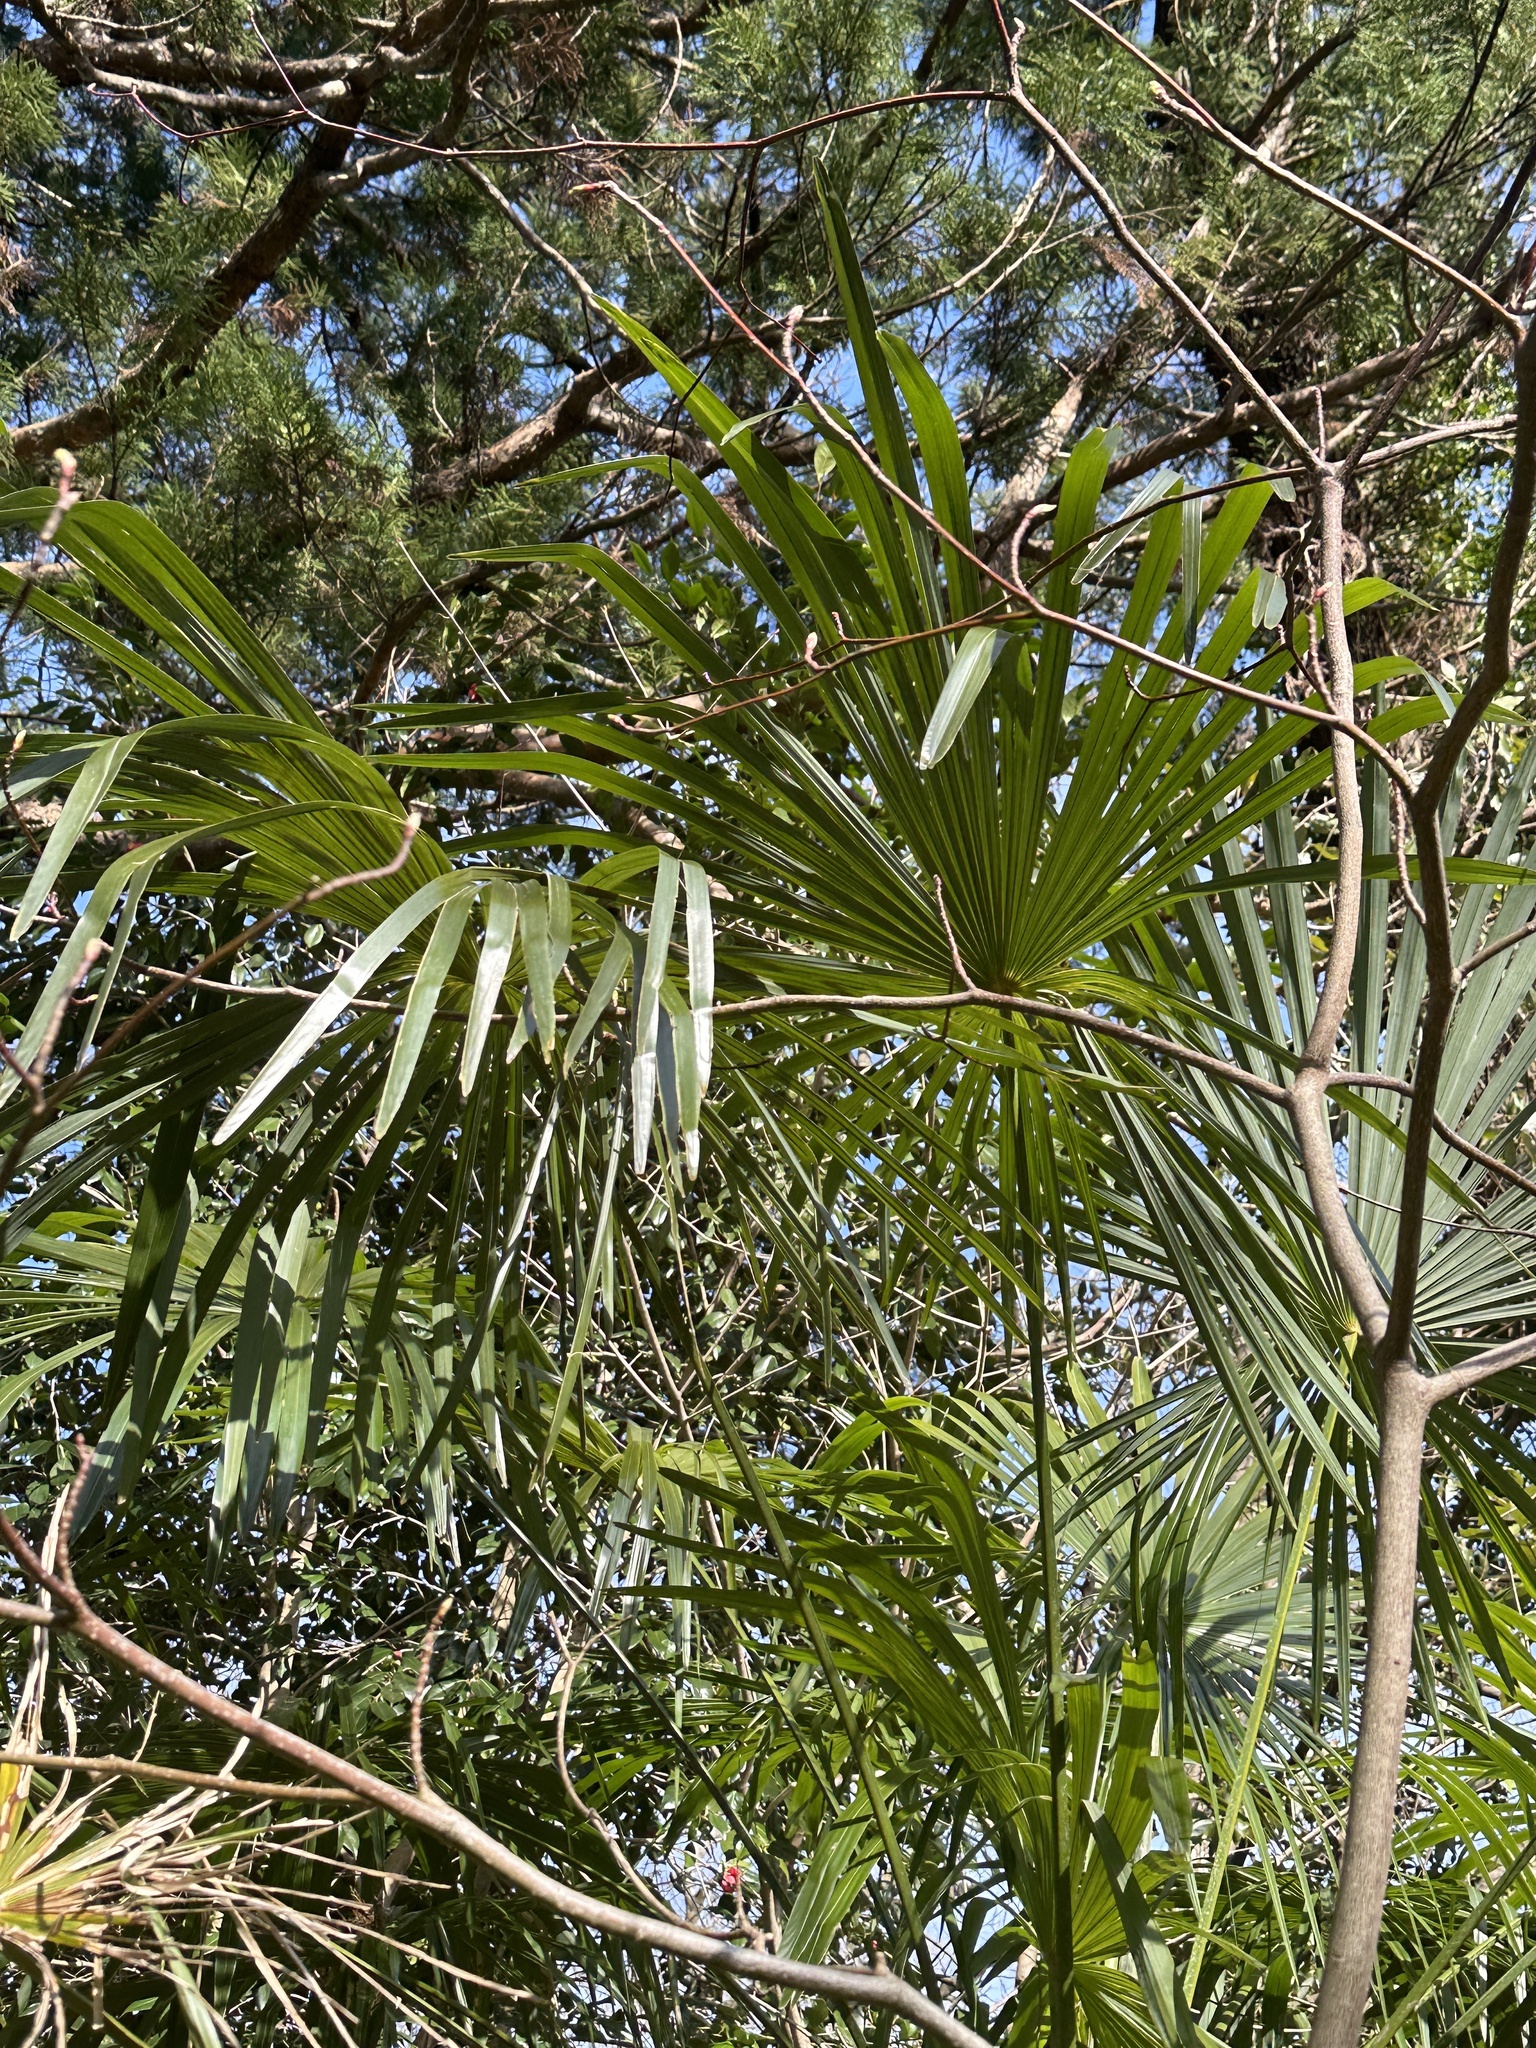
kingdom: Plantae
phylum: Tracheophyta
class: Liliopsida
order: Arecales
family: Arecaceae
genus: Trachycarpus
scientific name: Trachycarpus fortunei
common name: Chusan palm
